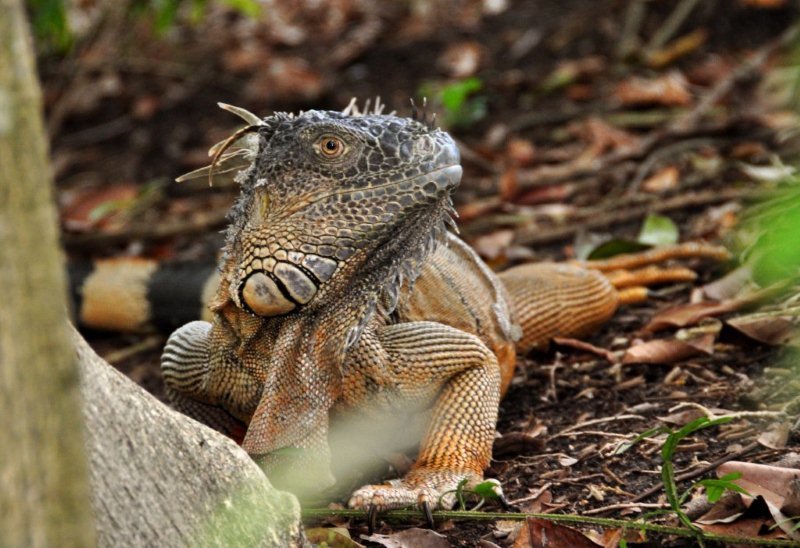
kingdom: Animalia
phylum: Chordata
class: Squamata
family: Iguanidae
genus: Iguana
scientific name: Iguana iguana
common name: Green iguana
